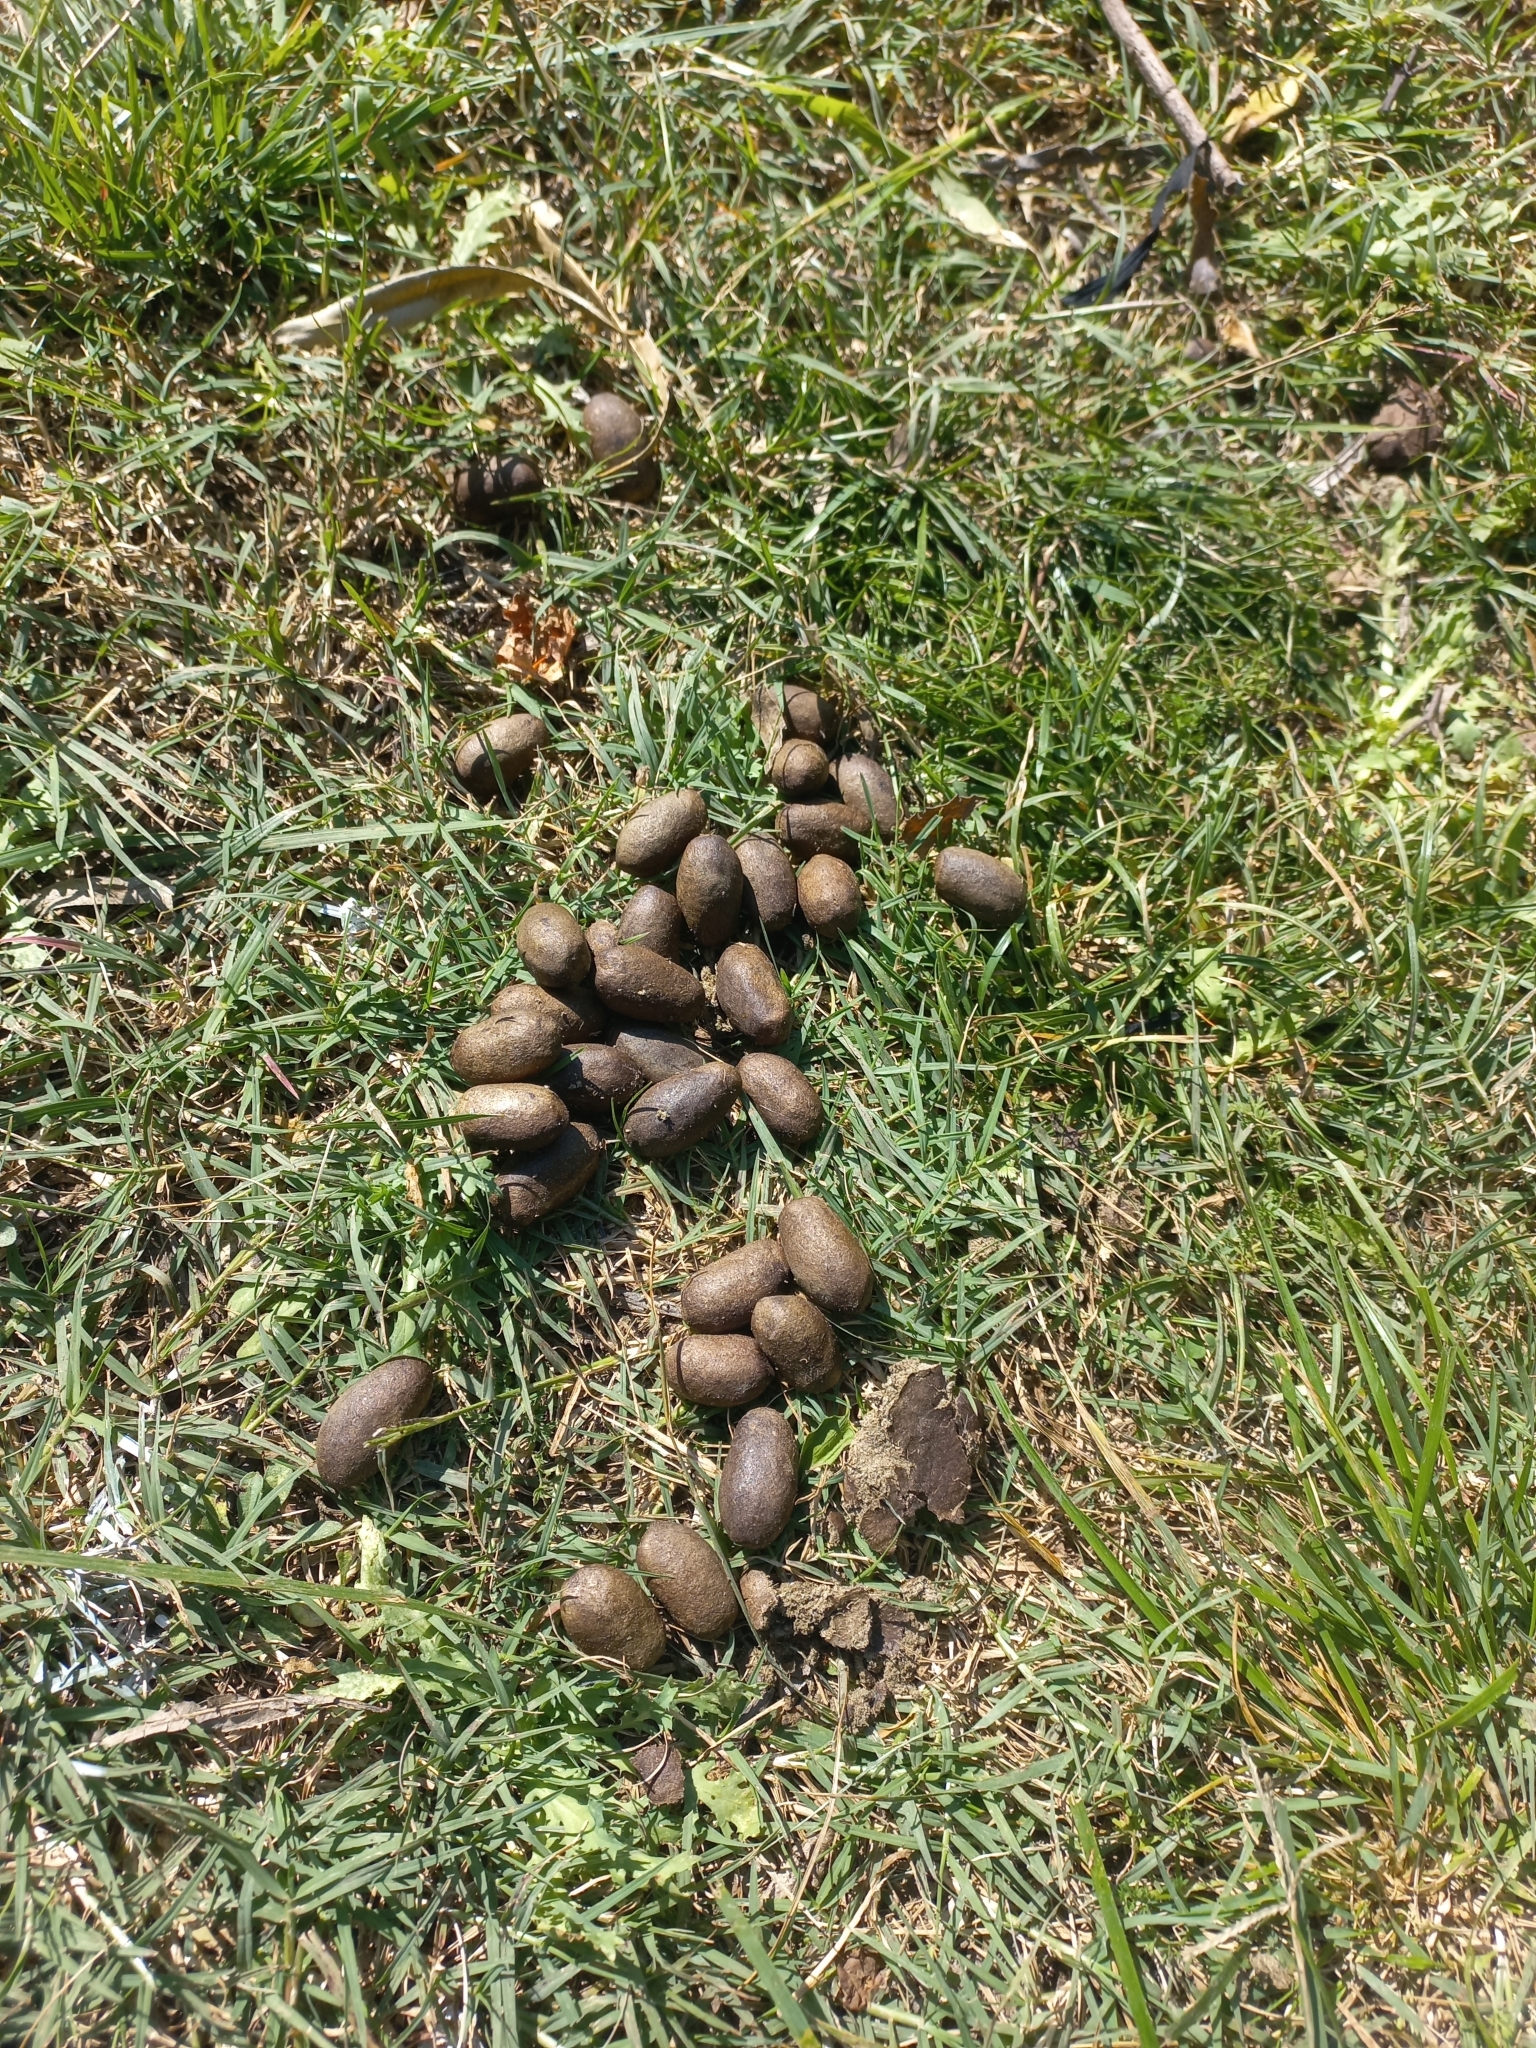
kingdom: Animalia
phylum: Chordata
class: Mammalia
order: Rodentia
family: Caviidae
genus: Hydrochoerus
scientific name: Hydrochoerus hydrochaeris
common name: Capybara
